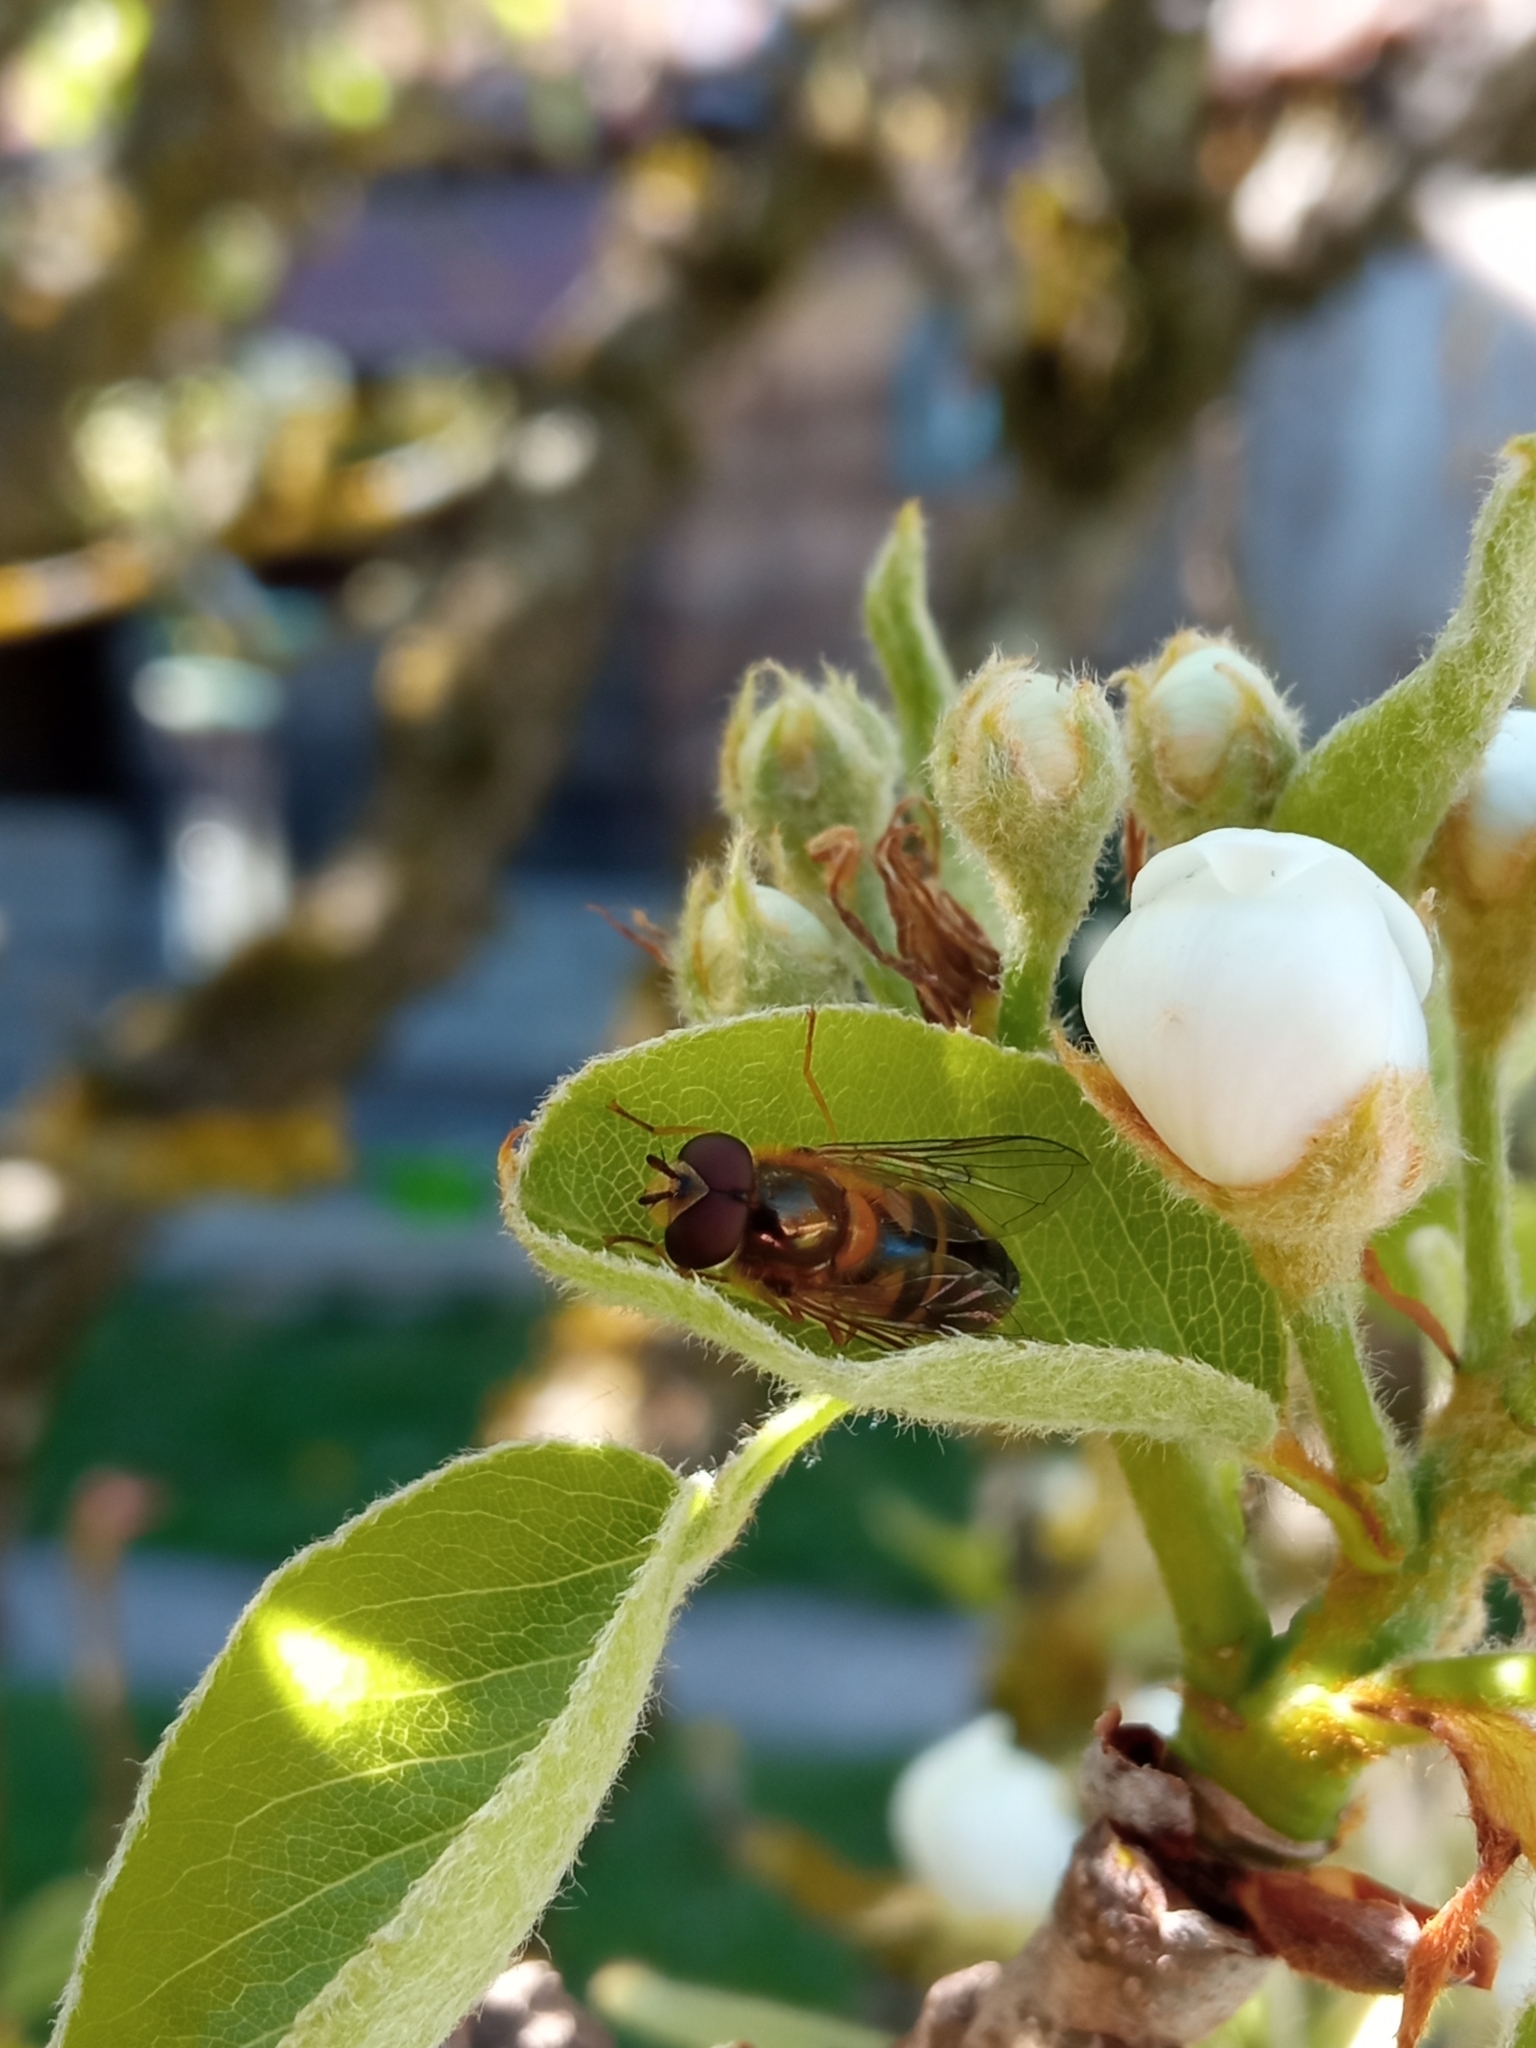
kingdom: Animalia
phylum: Arthropoda
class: Insecta
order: Diptera
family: Syrphidae
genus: Epistrophe
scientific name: Epistrophe eligans
